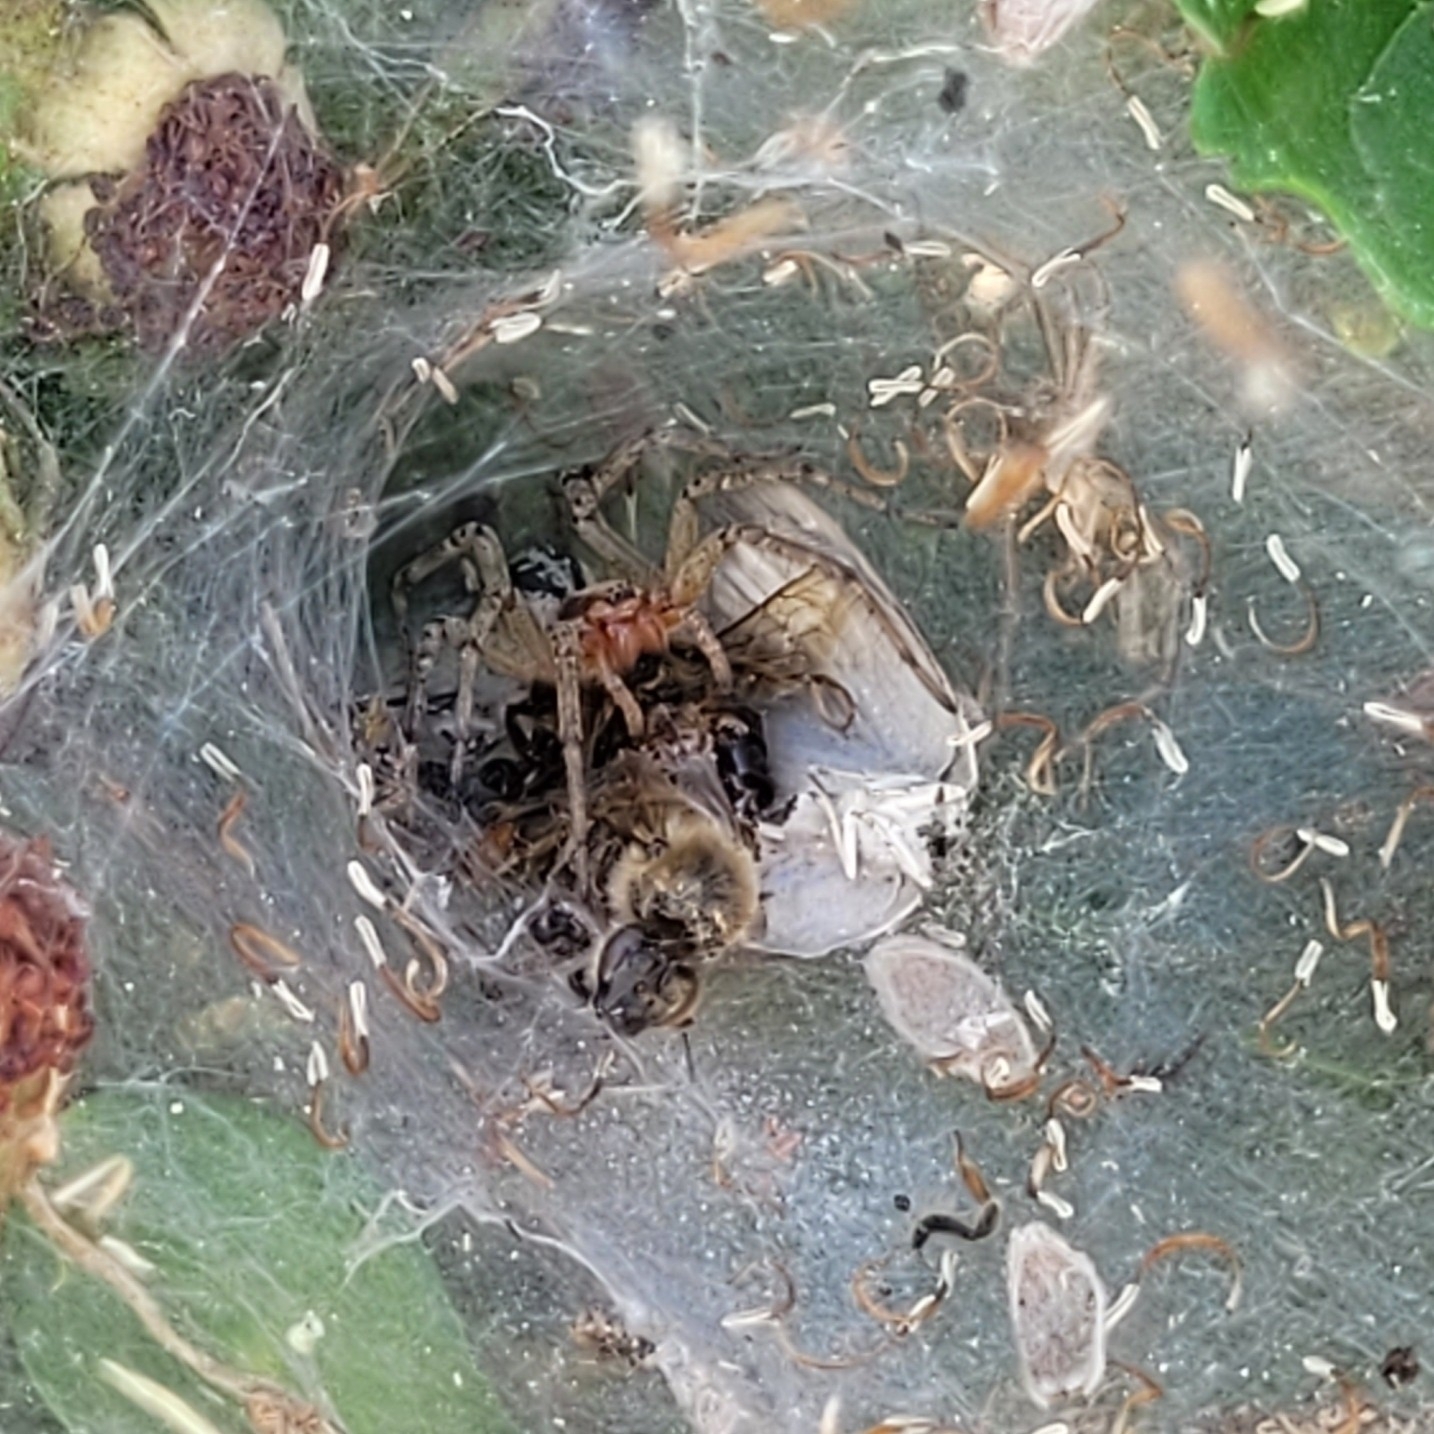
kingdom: Animalia
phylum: Arthropoda
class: Arachnida
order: Araneae
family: Agelenidae
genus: Agelena
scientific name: Agelena labyrinthica
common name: Labyrinth spider
